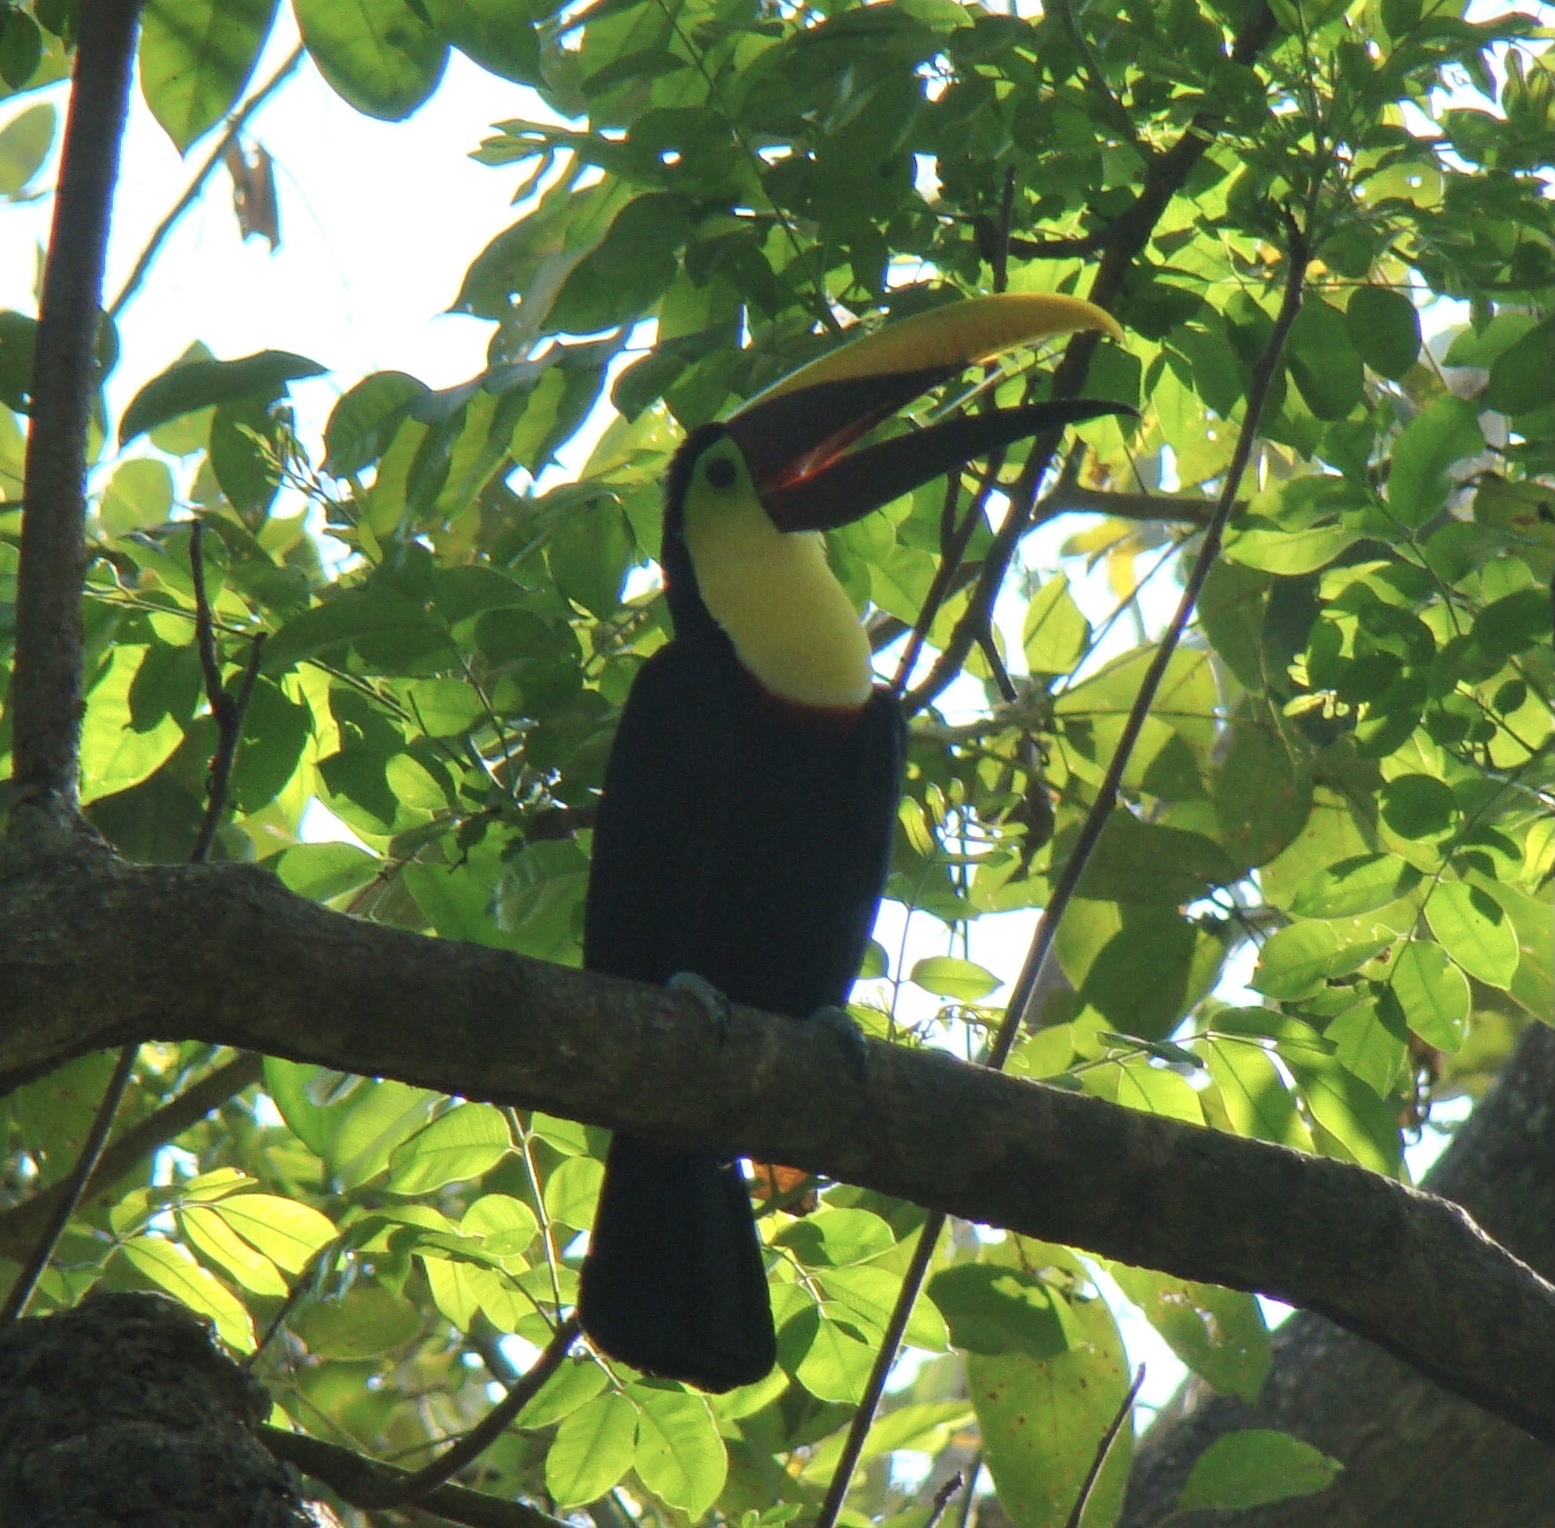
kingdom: Animalia
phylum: Chordata
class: Aves
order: Piciformes
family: Ramphastidae
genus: Ramphastos
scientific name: Ramphastos ambiguus
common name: Yellow-throated toucan
